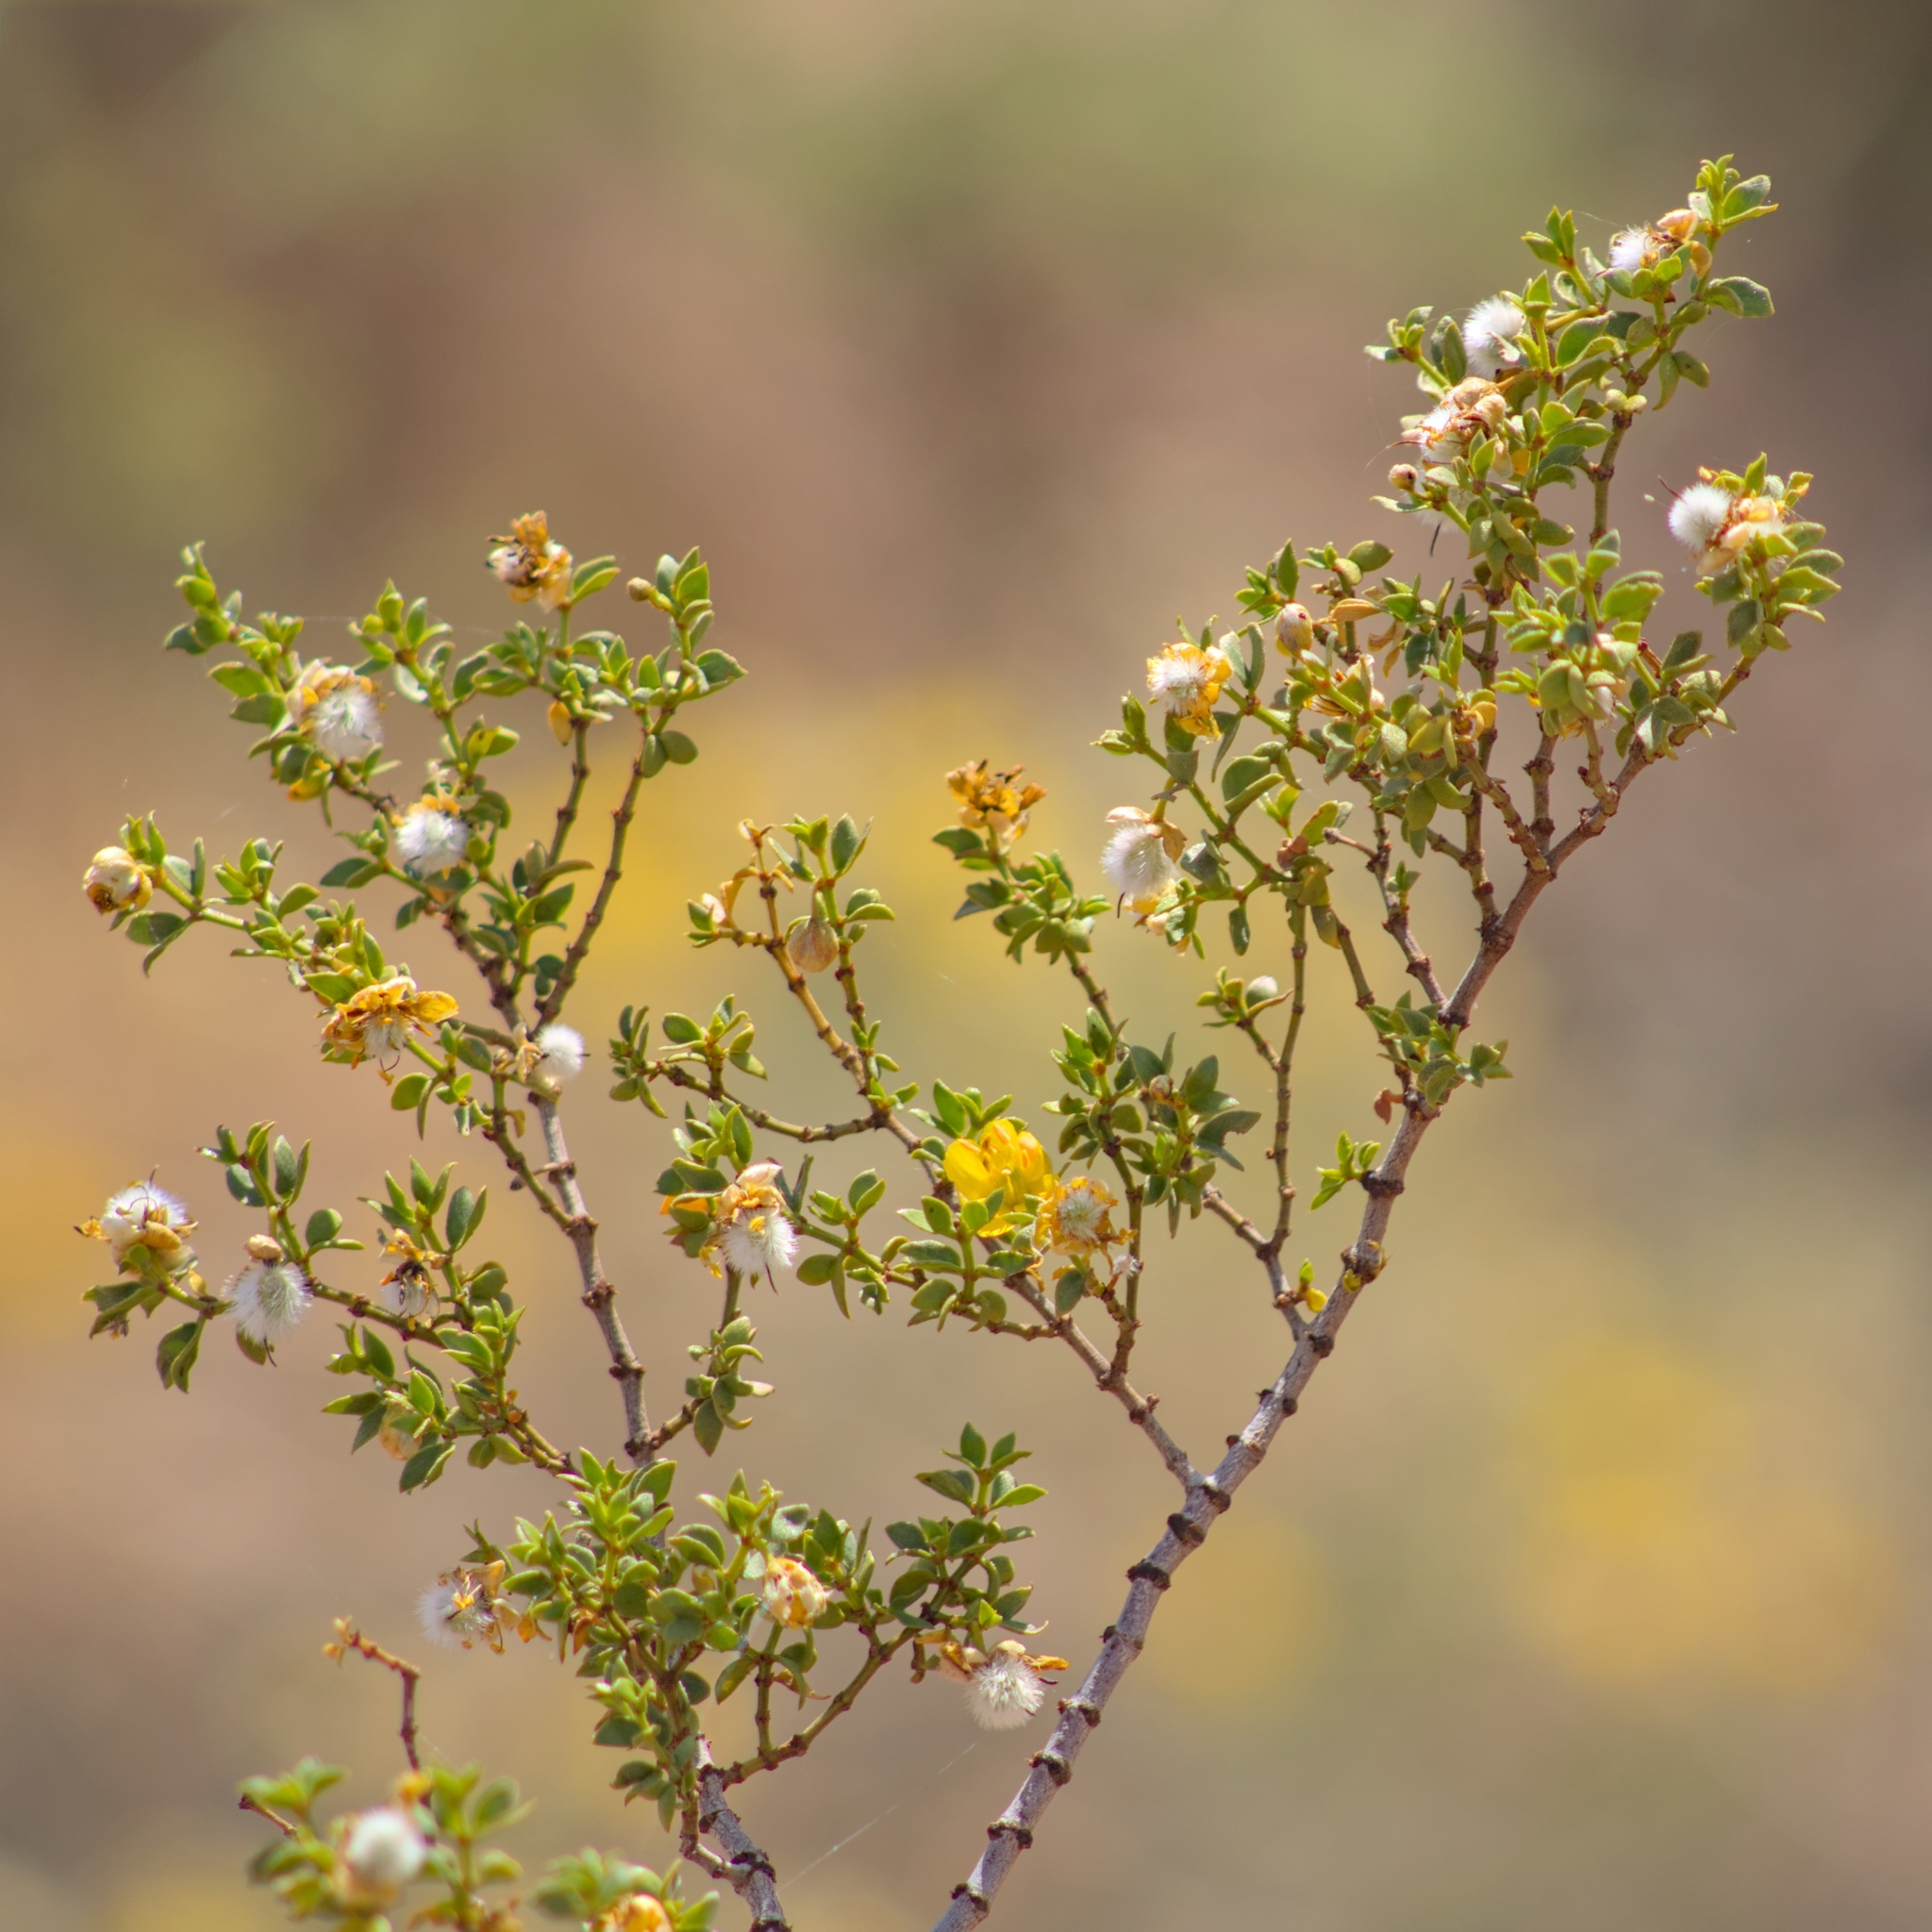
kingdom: Plantae
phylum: Tracheophyta
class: Magnoliopsida
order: Zygophyllales
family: Zygophyllaceae
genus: Larrea
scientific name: Larrea tridentata
